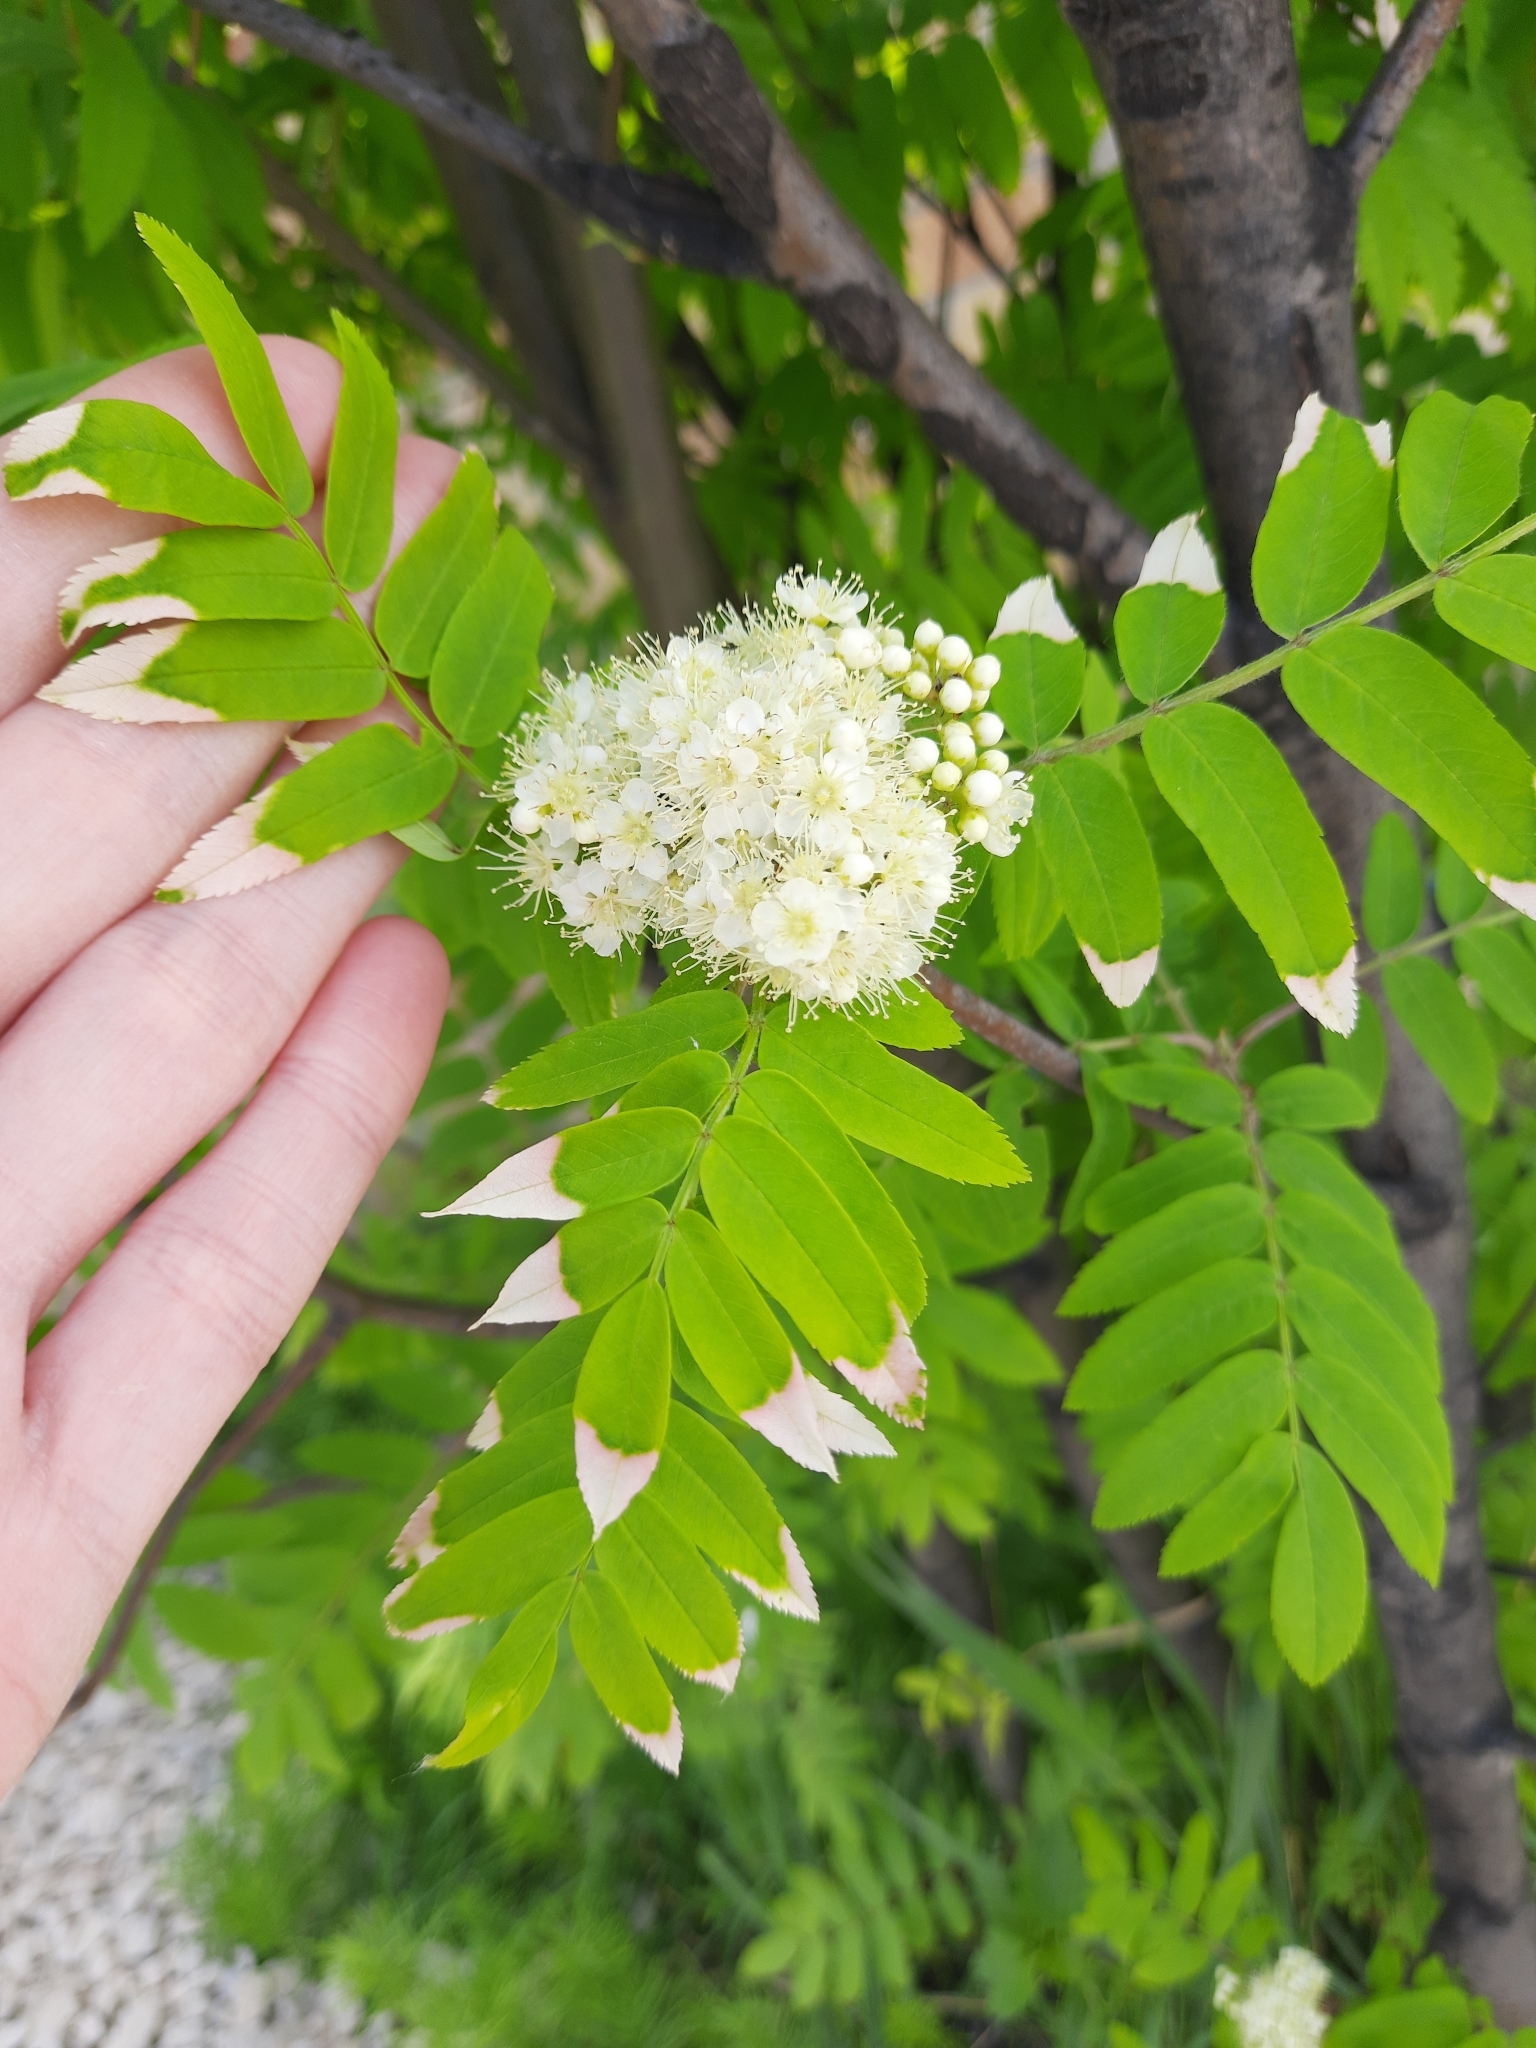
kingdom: Plantae
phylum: Tracheophyta
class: Magnoliopsida
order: Rosales
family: Rosaceae
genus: Sorbus
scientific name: Sorbus aucuparia
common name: Rowan
